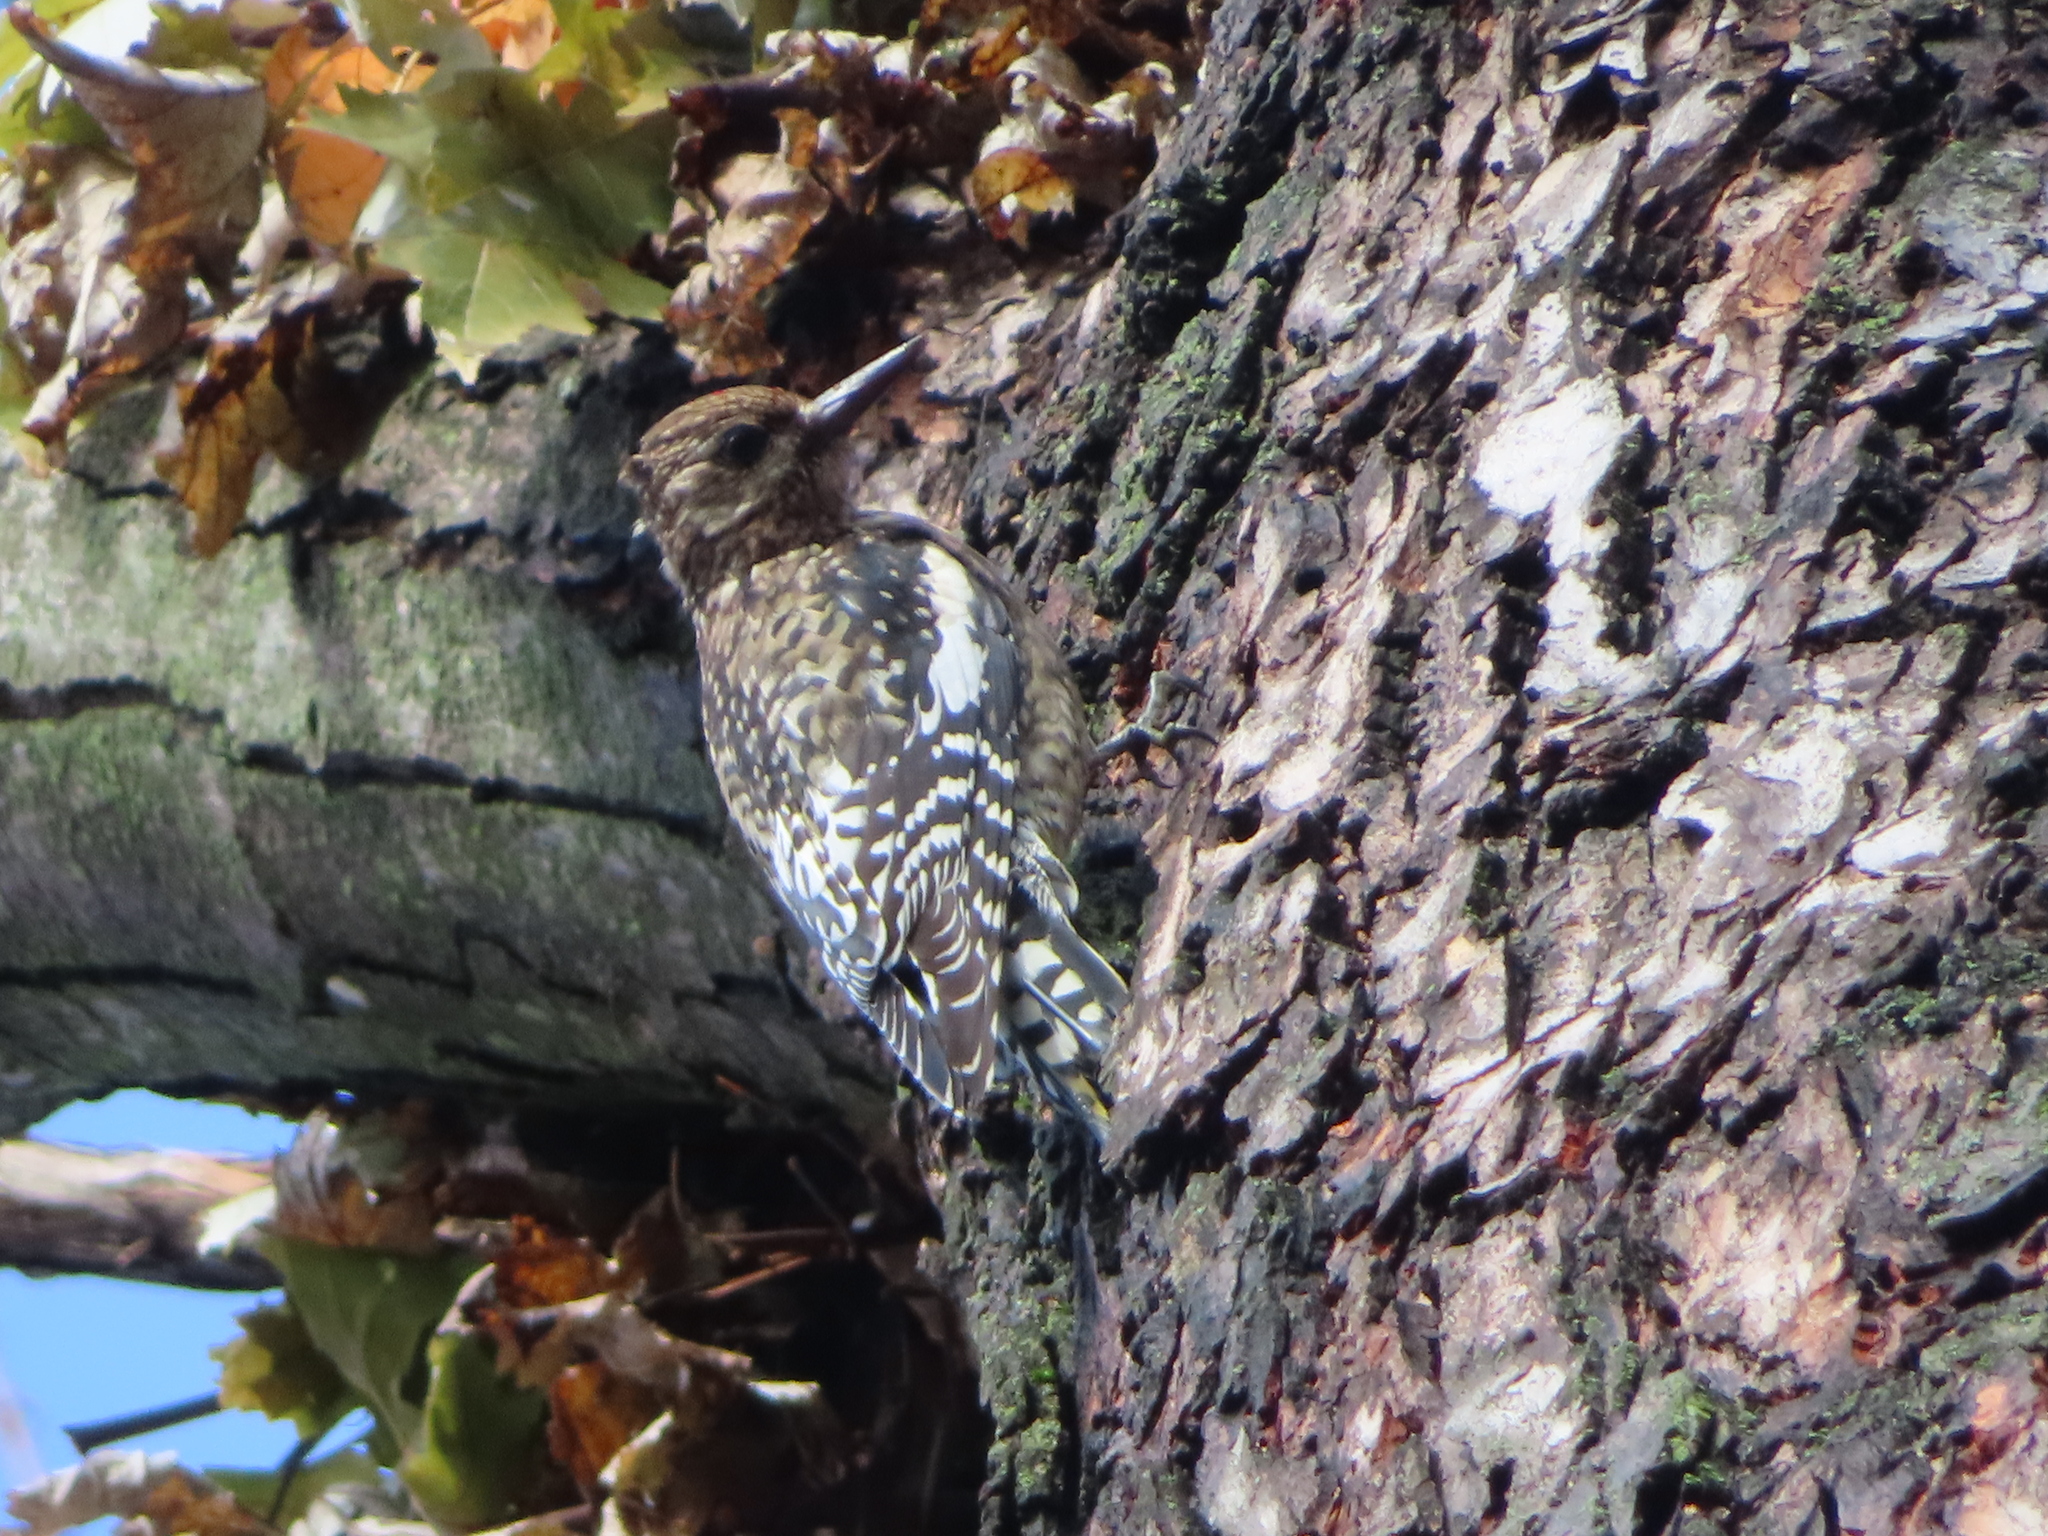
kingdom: Animalia
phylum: Chordata
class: Aves
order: Piciformes
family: Picidae
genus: Sphyrapicus
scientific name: Sphyrapicus varius
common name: Yellow-bellied sapsucker
